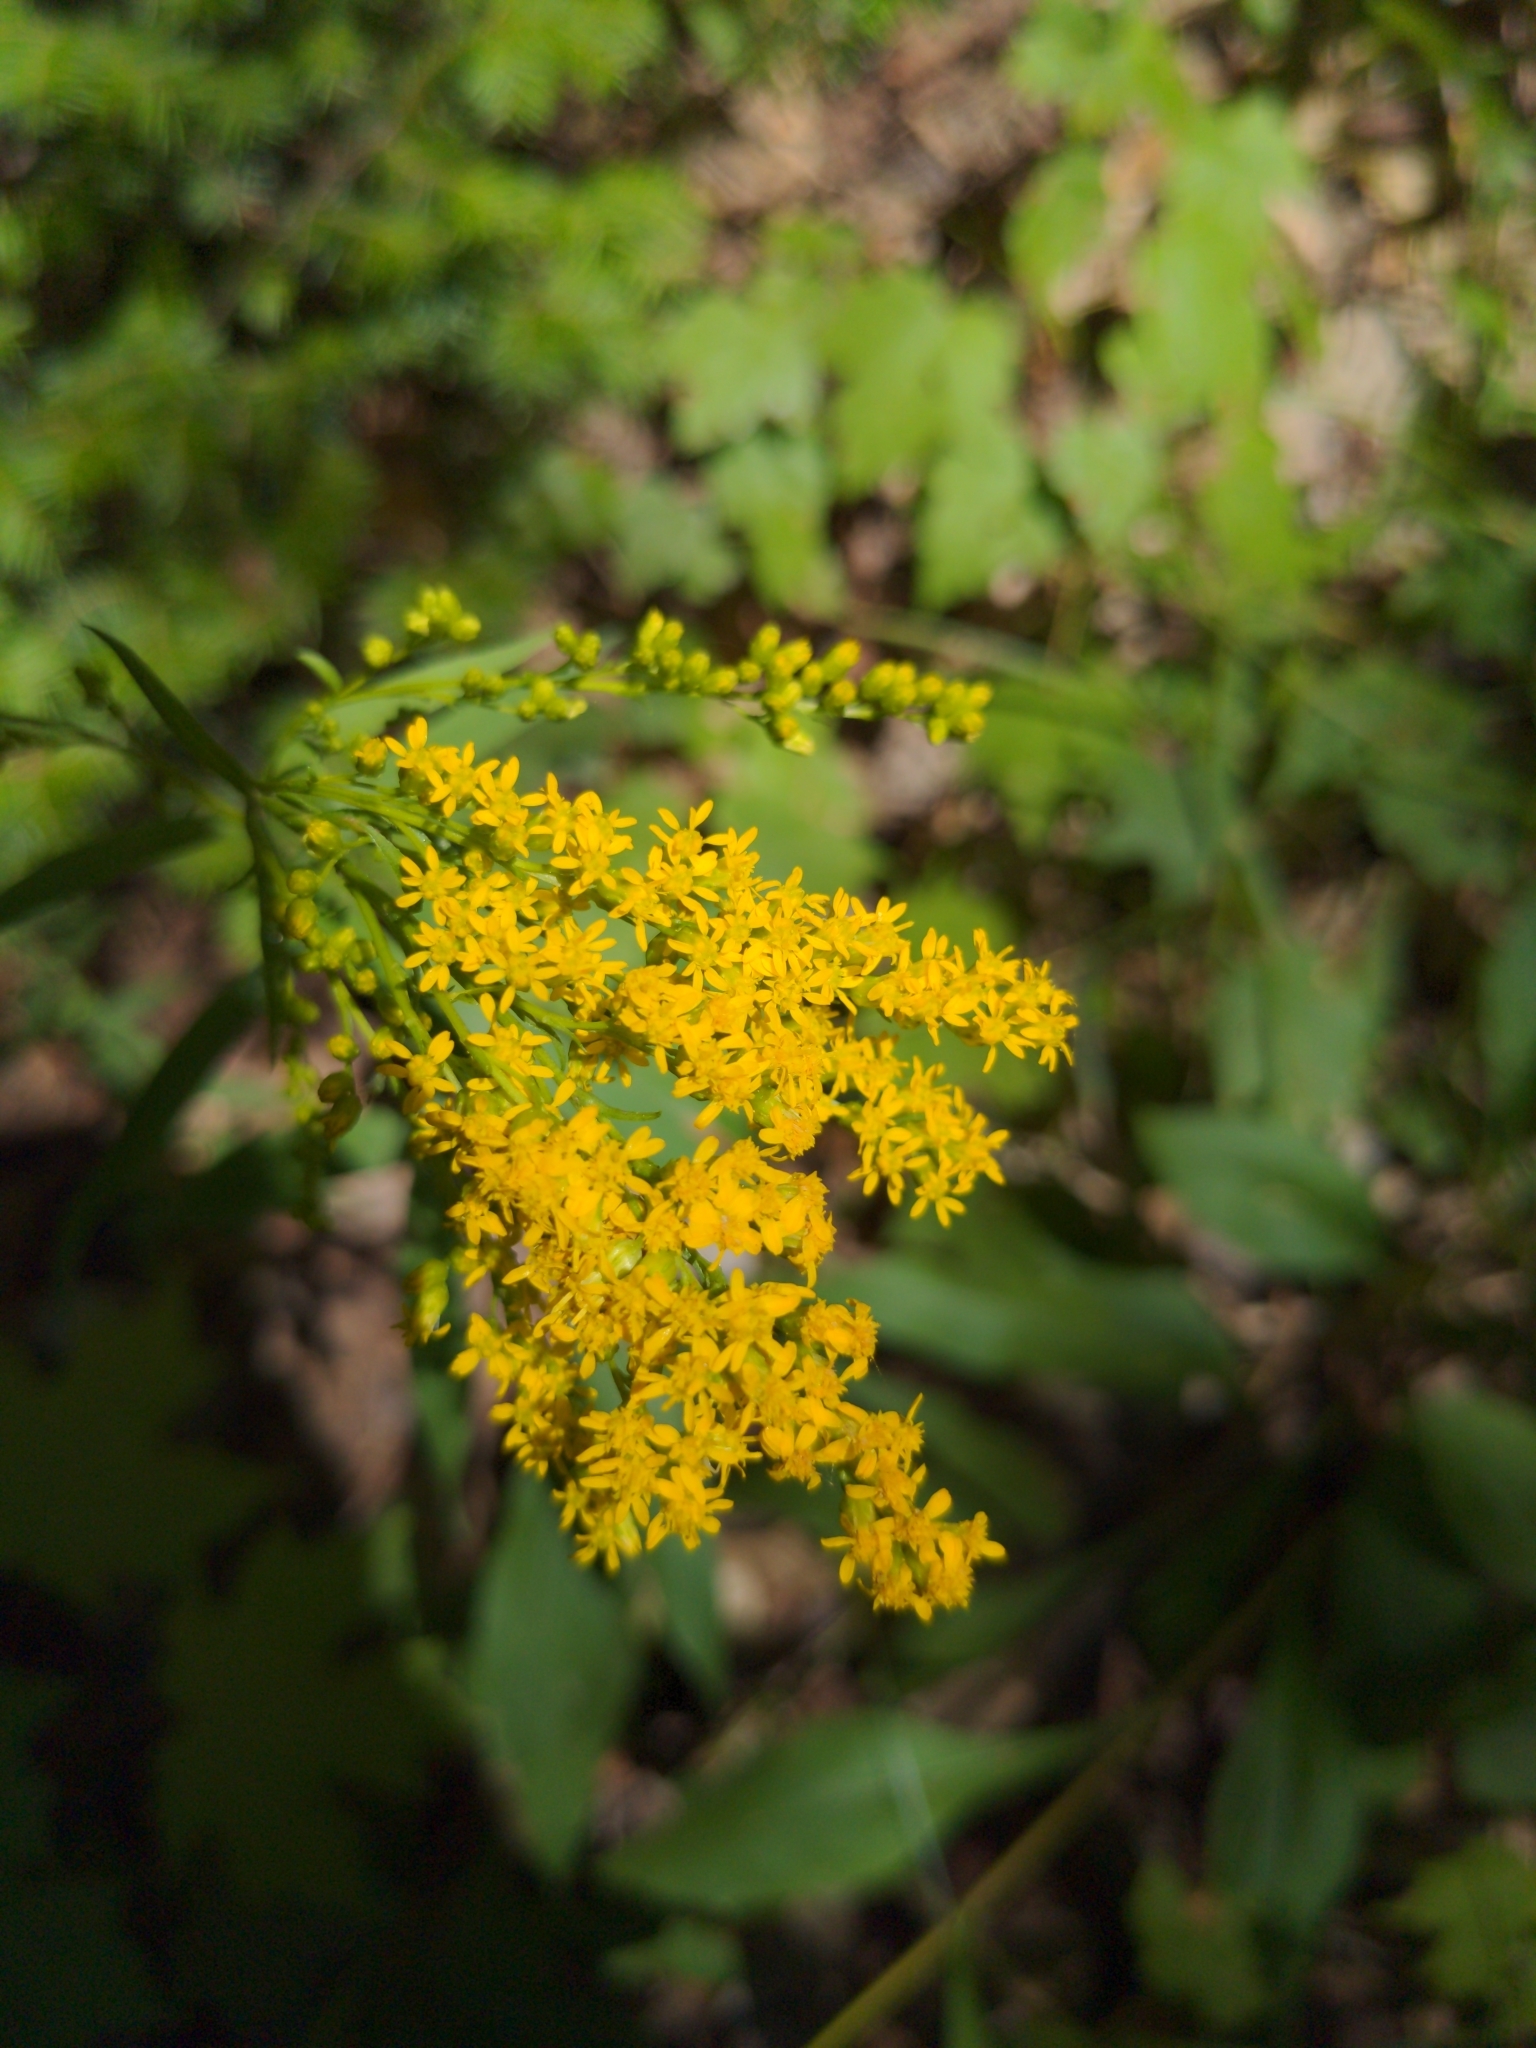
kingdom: Plantae
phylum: Tracheophyta
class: Magnoliopsida
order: Asterales
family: Asteraceae
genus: Solidago
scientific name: Solidago juncea
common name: Early goldenrod
